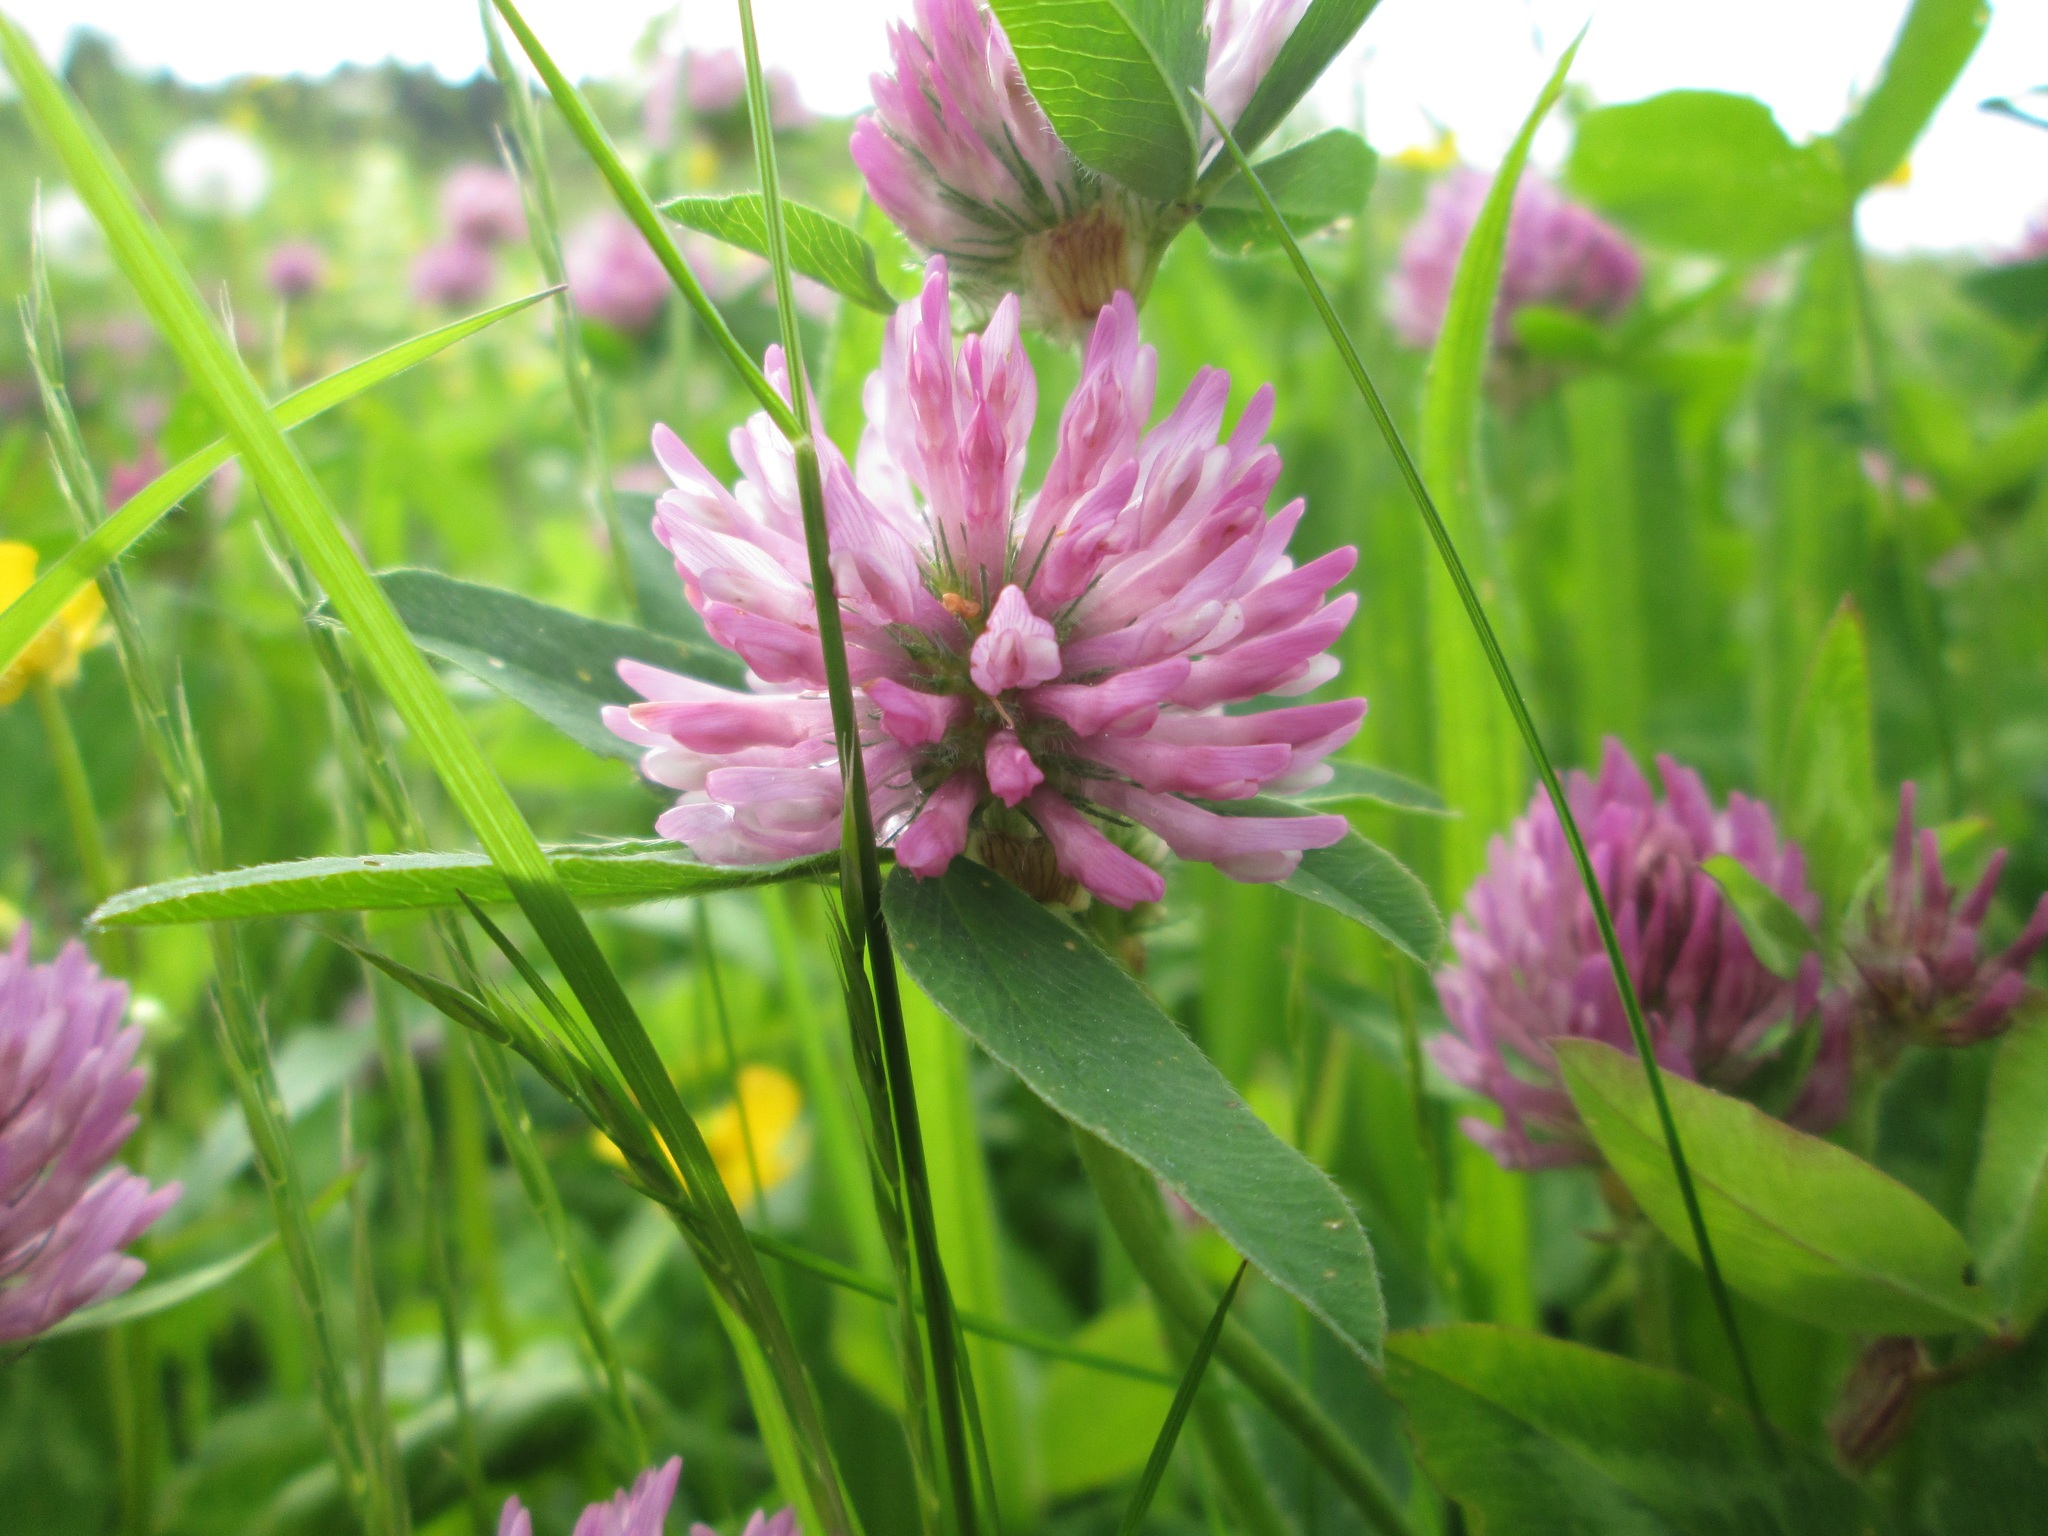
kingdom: Plantae
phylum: Tracheophyta
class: Magnoliopsida
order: Fabales
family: Fabaceae
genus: Trifolium
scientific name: Trifolium pratense
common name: Red clover
